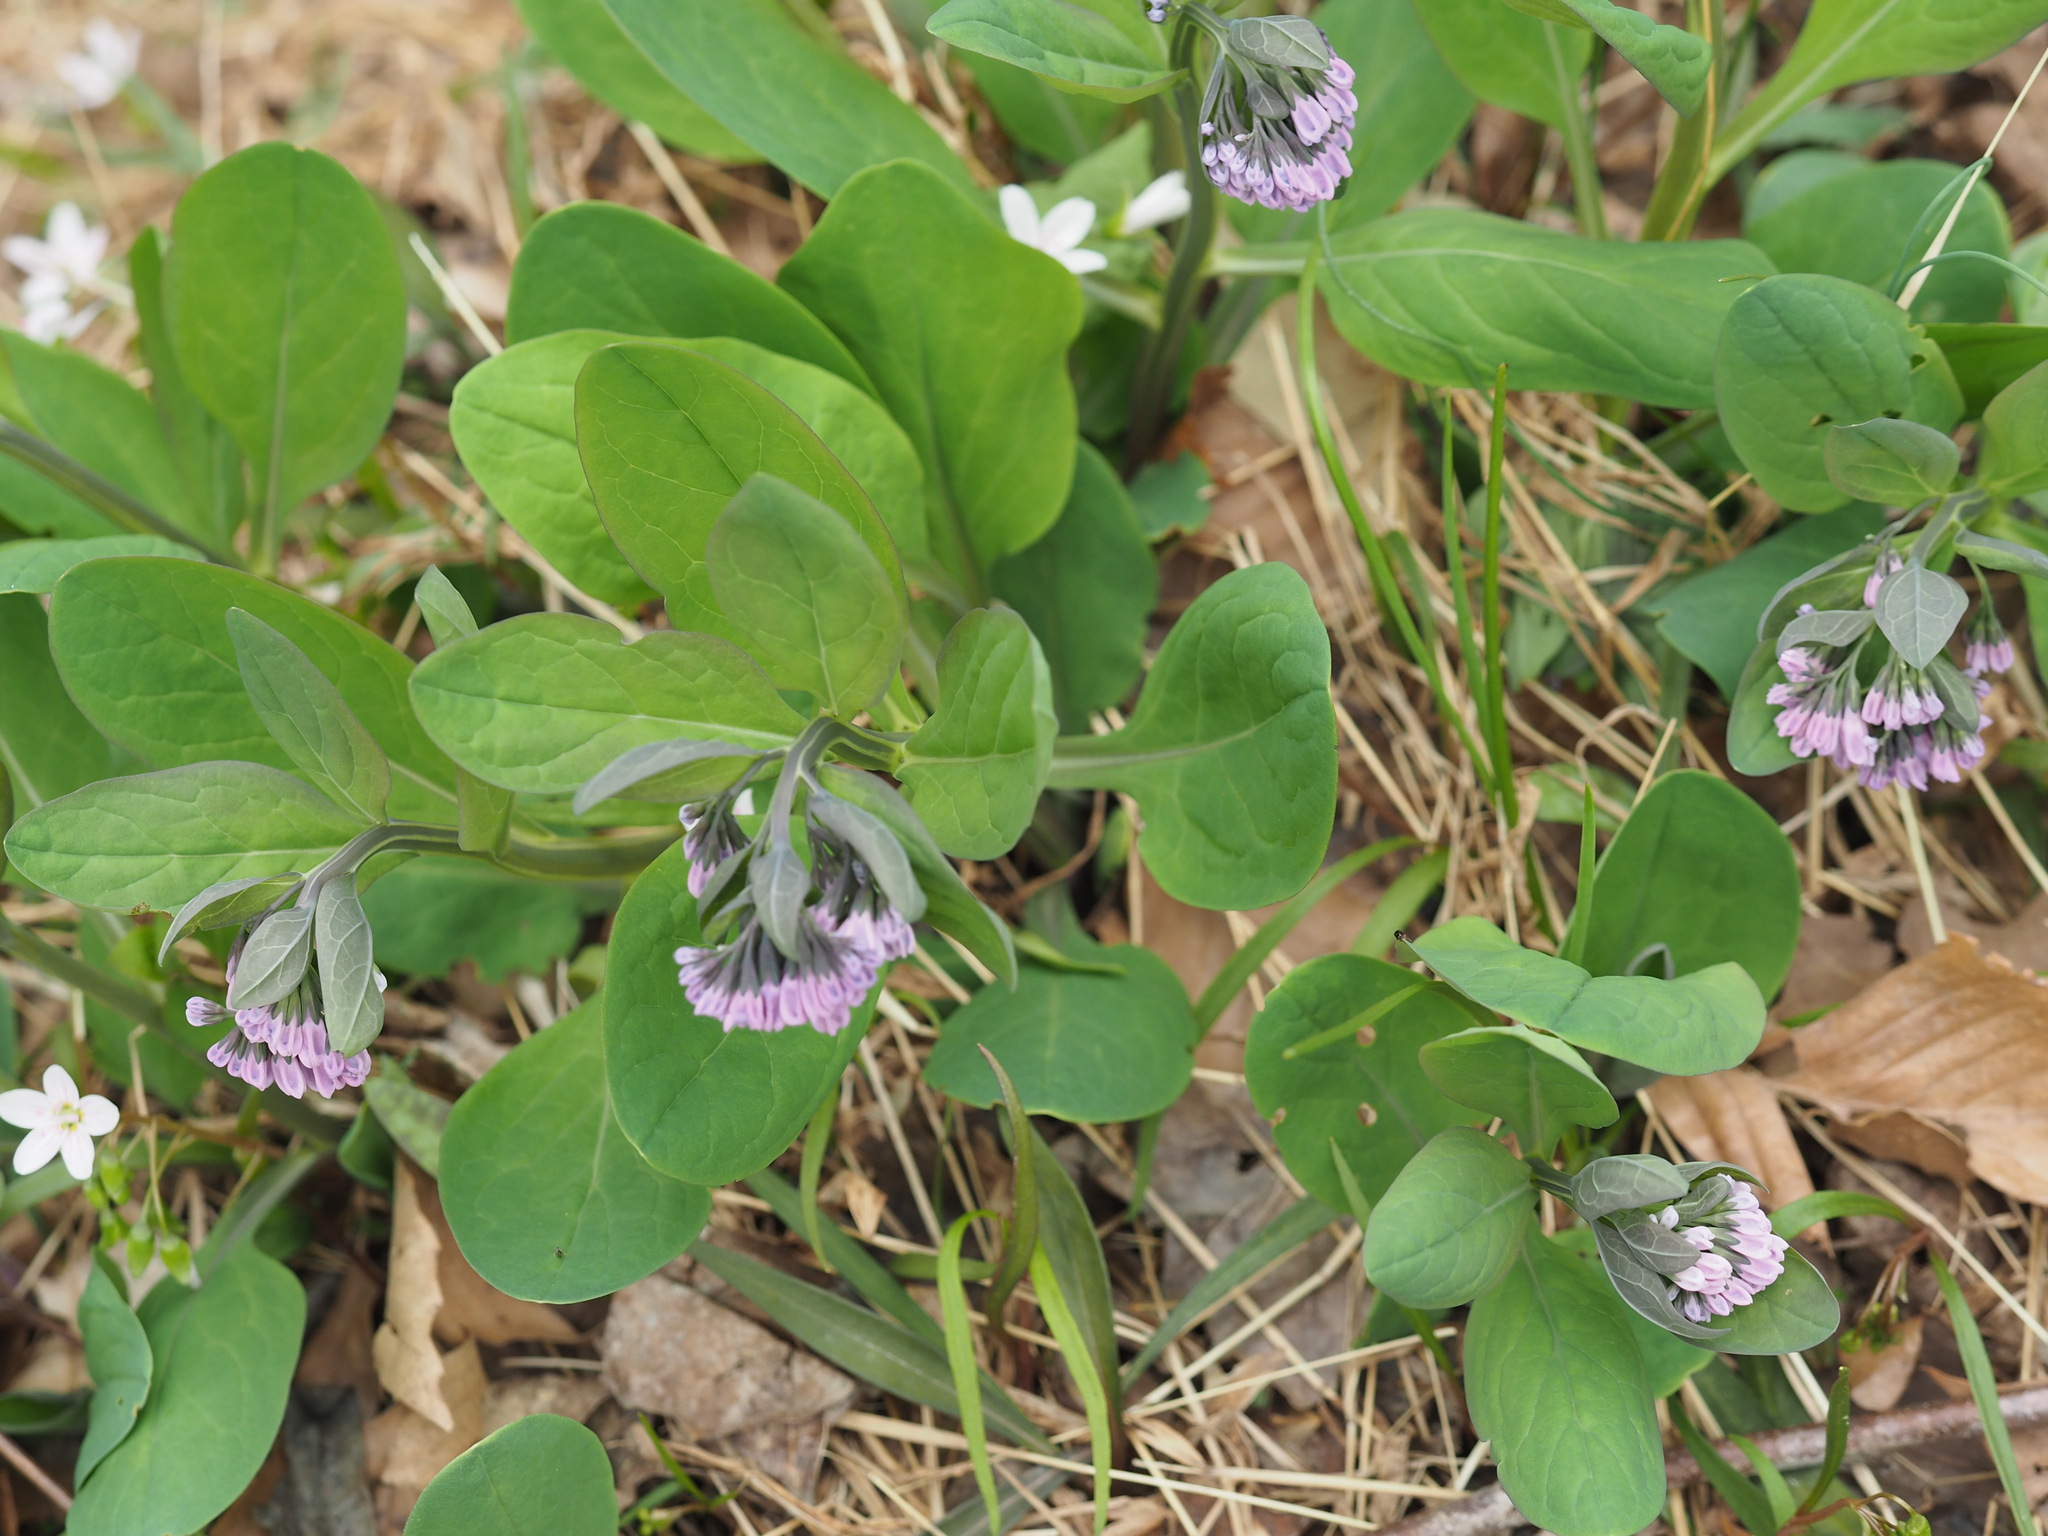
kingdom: Plantae
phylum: Tracheophyta
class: Magnoliopsida
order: Boraginales
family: Boraginaceae
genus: Mertensia
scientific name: Mertensia virginica
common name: Virginia bluebells
